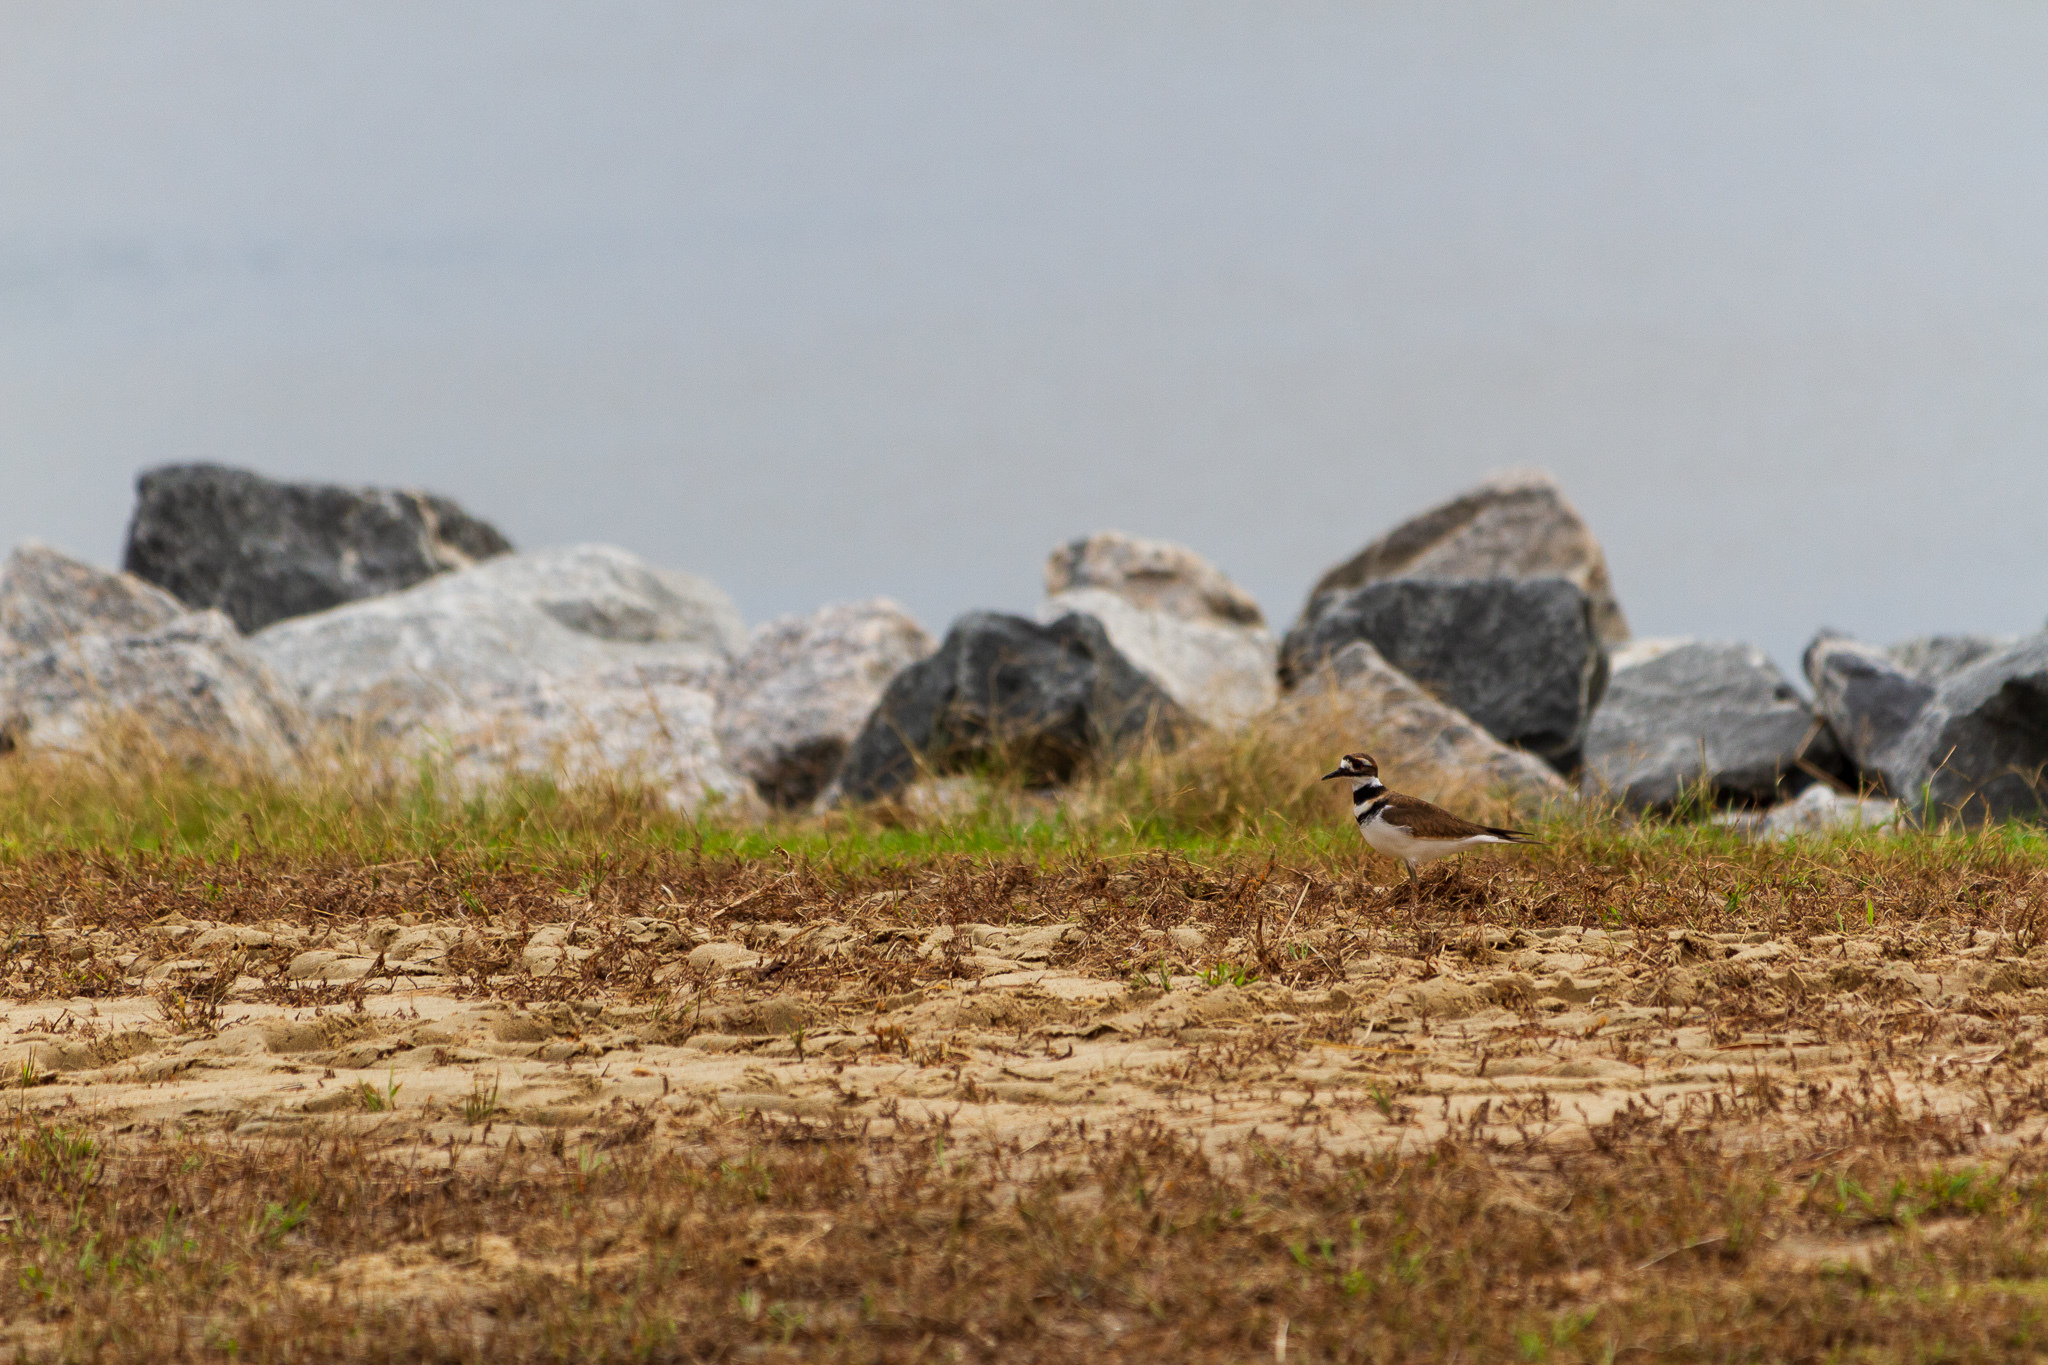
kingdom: Animalia
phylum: Chordata
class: Aves
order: Charadriiformes
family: Charadriidae
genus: Charadrius
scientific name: Charadrius vociferus
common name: Killdeer
